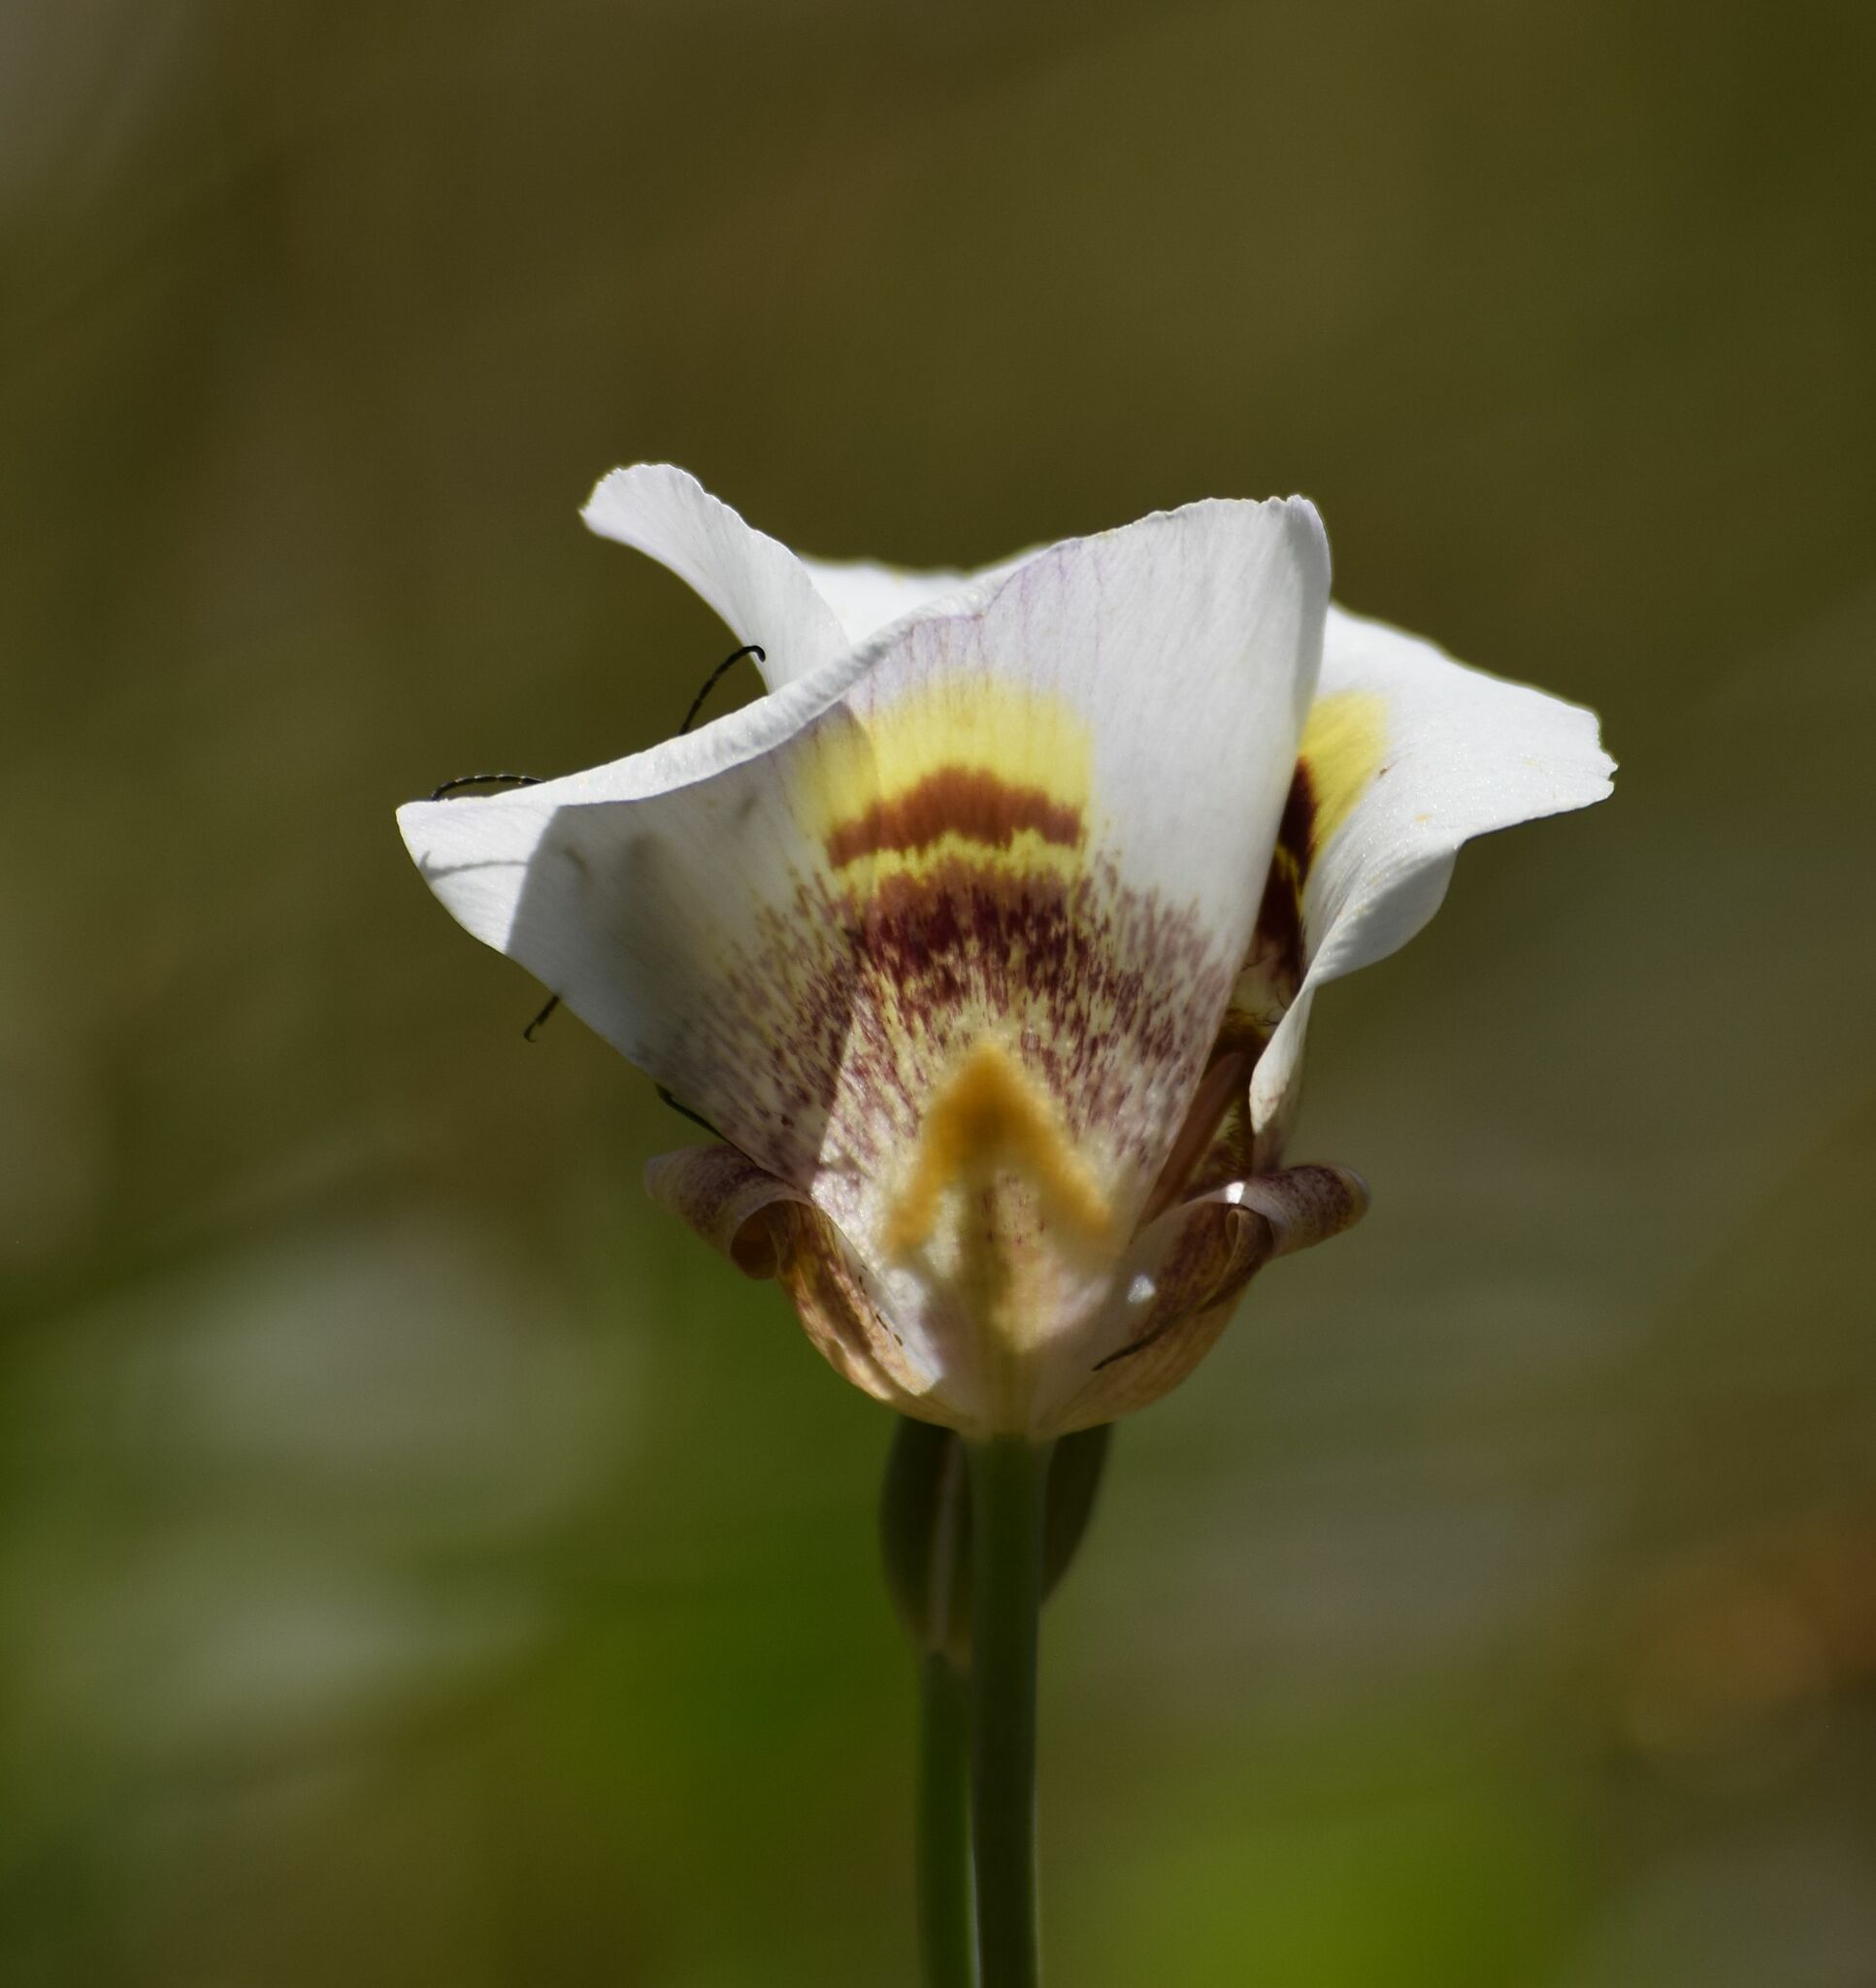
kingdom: Plantae
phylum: Tracheophyta
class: Liliopsida
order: Liliales
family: Liliaceae
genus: Calochortus
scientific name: Calochortus superbus
